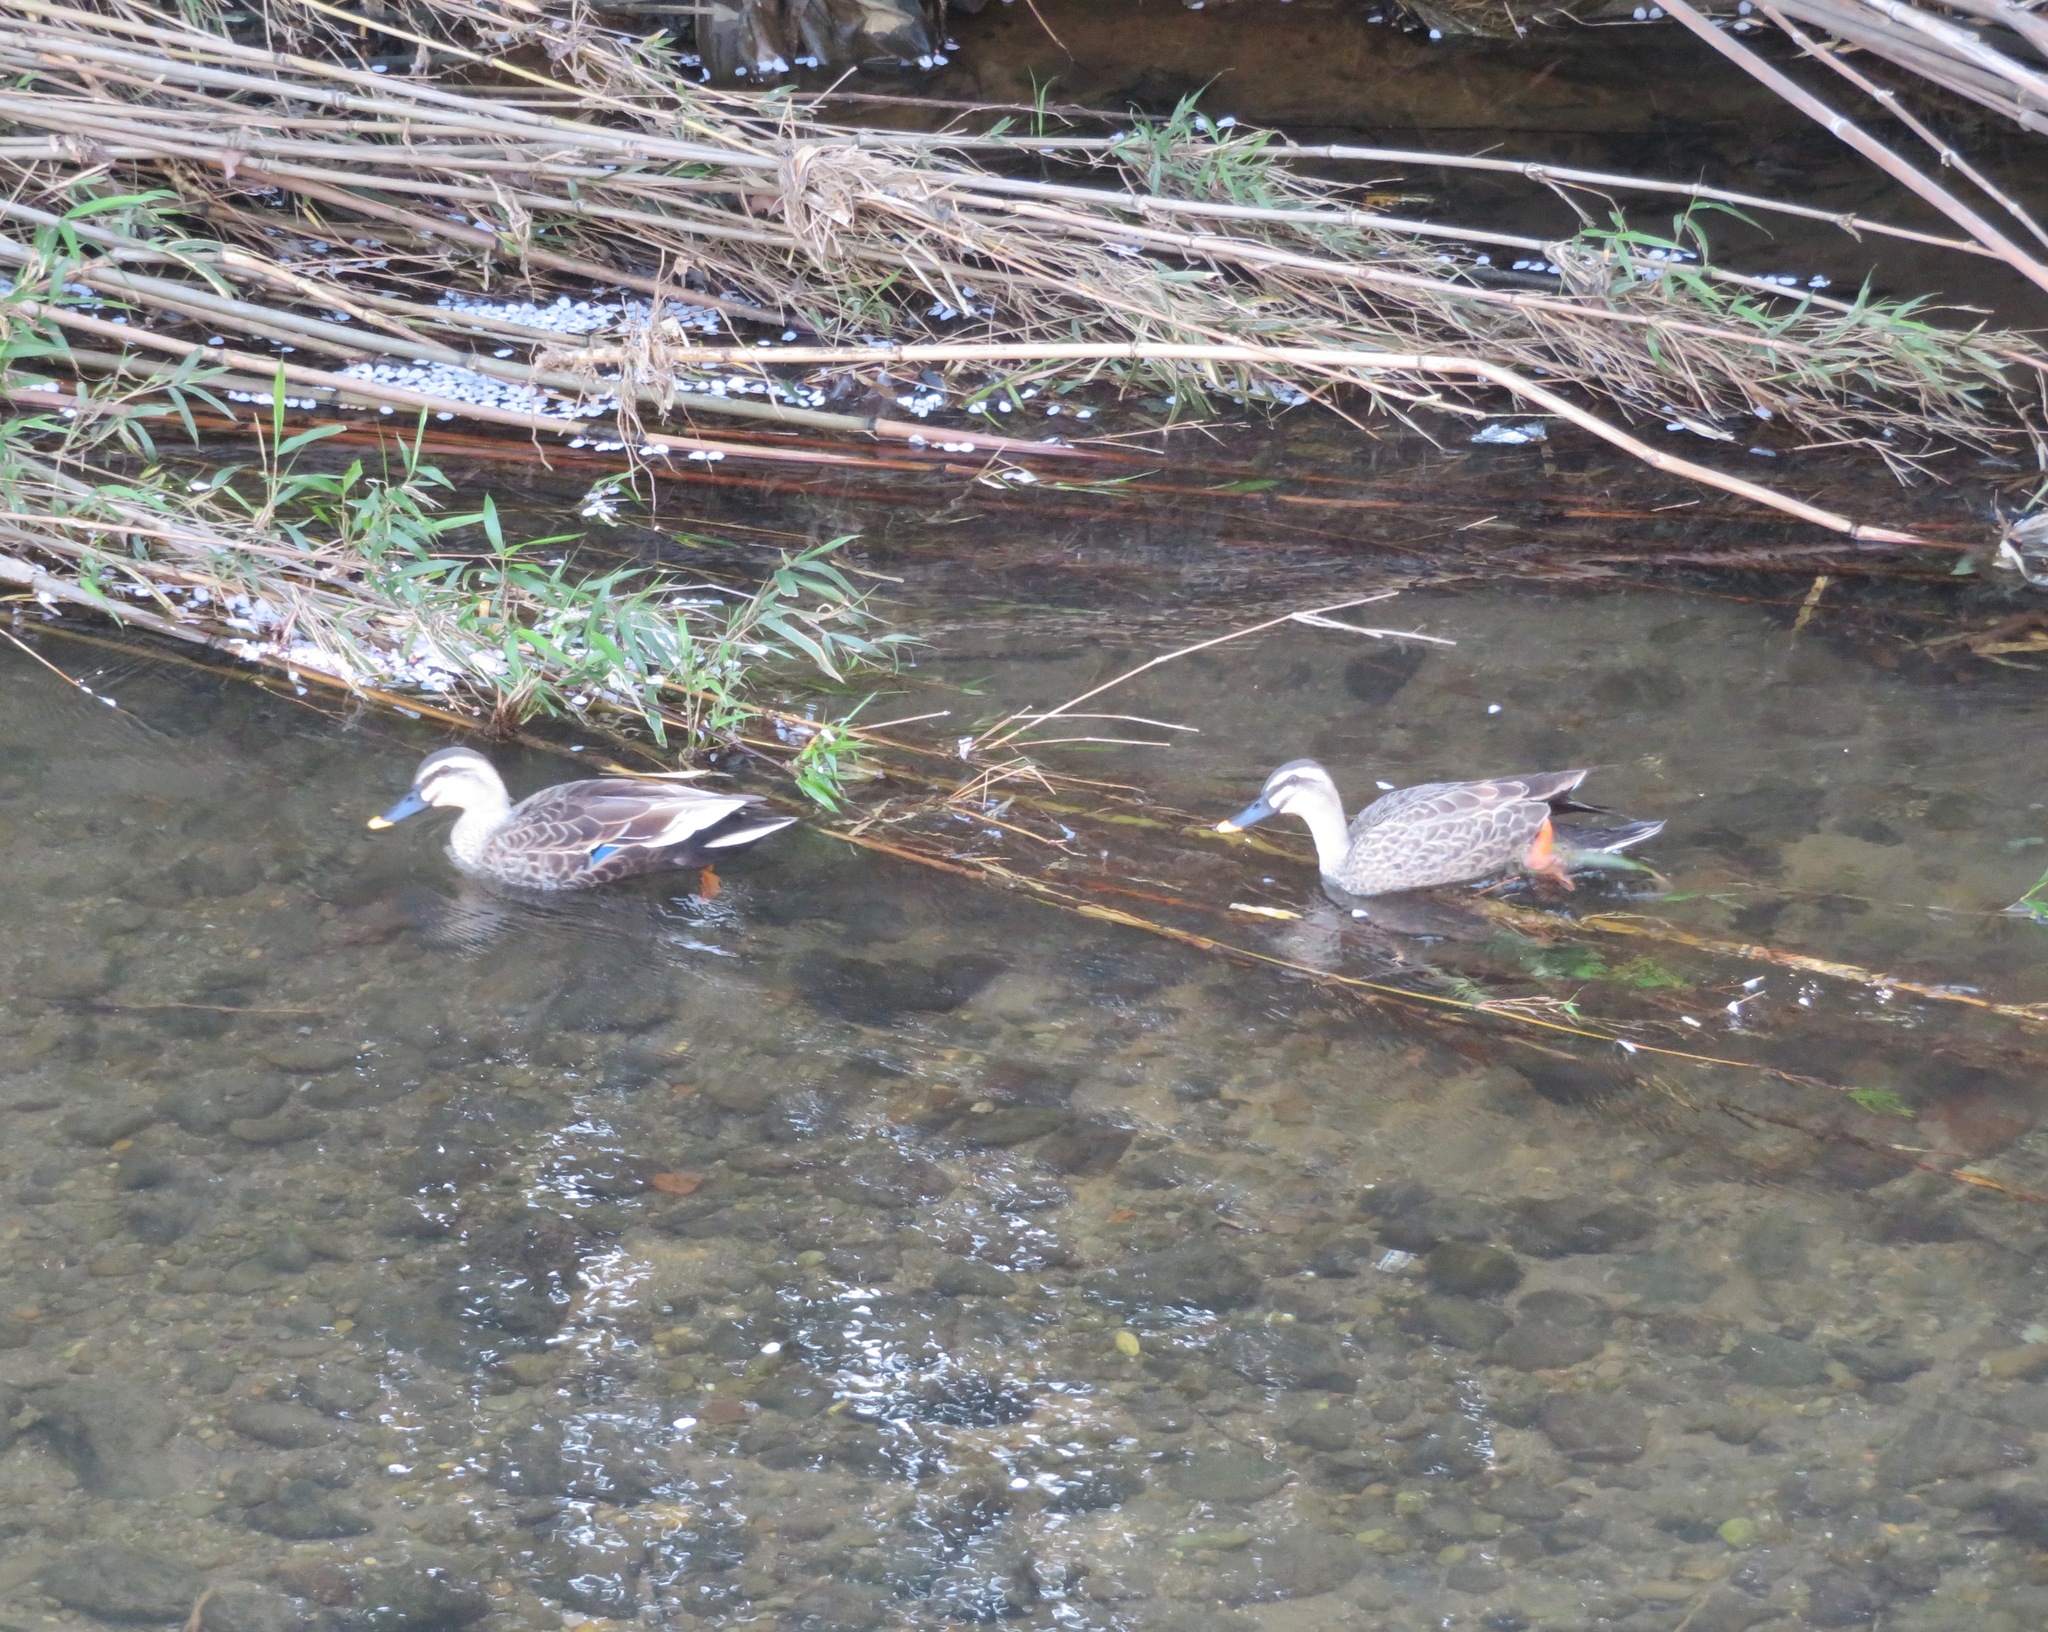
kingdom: Animalia
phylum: Chordata
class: Aves
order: Anseriformes
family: Anatidae
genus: Anas
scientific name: Anas zonorhyncha
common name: Eastern spot-billed duck
